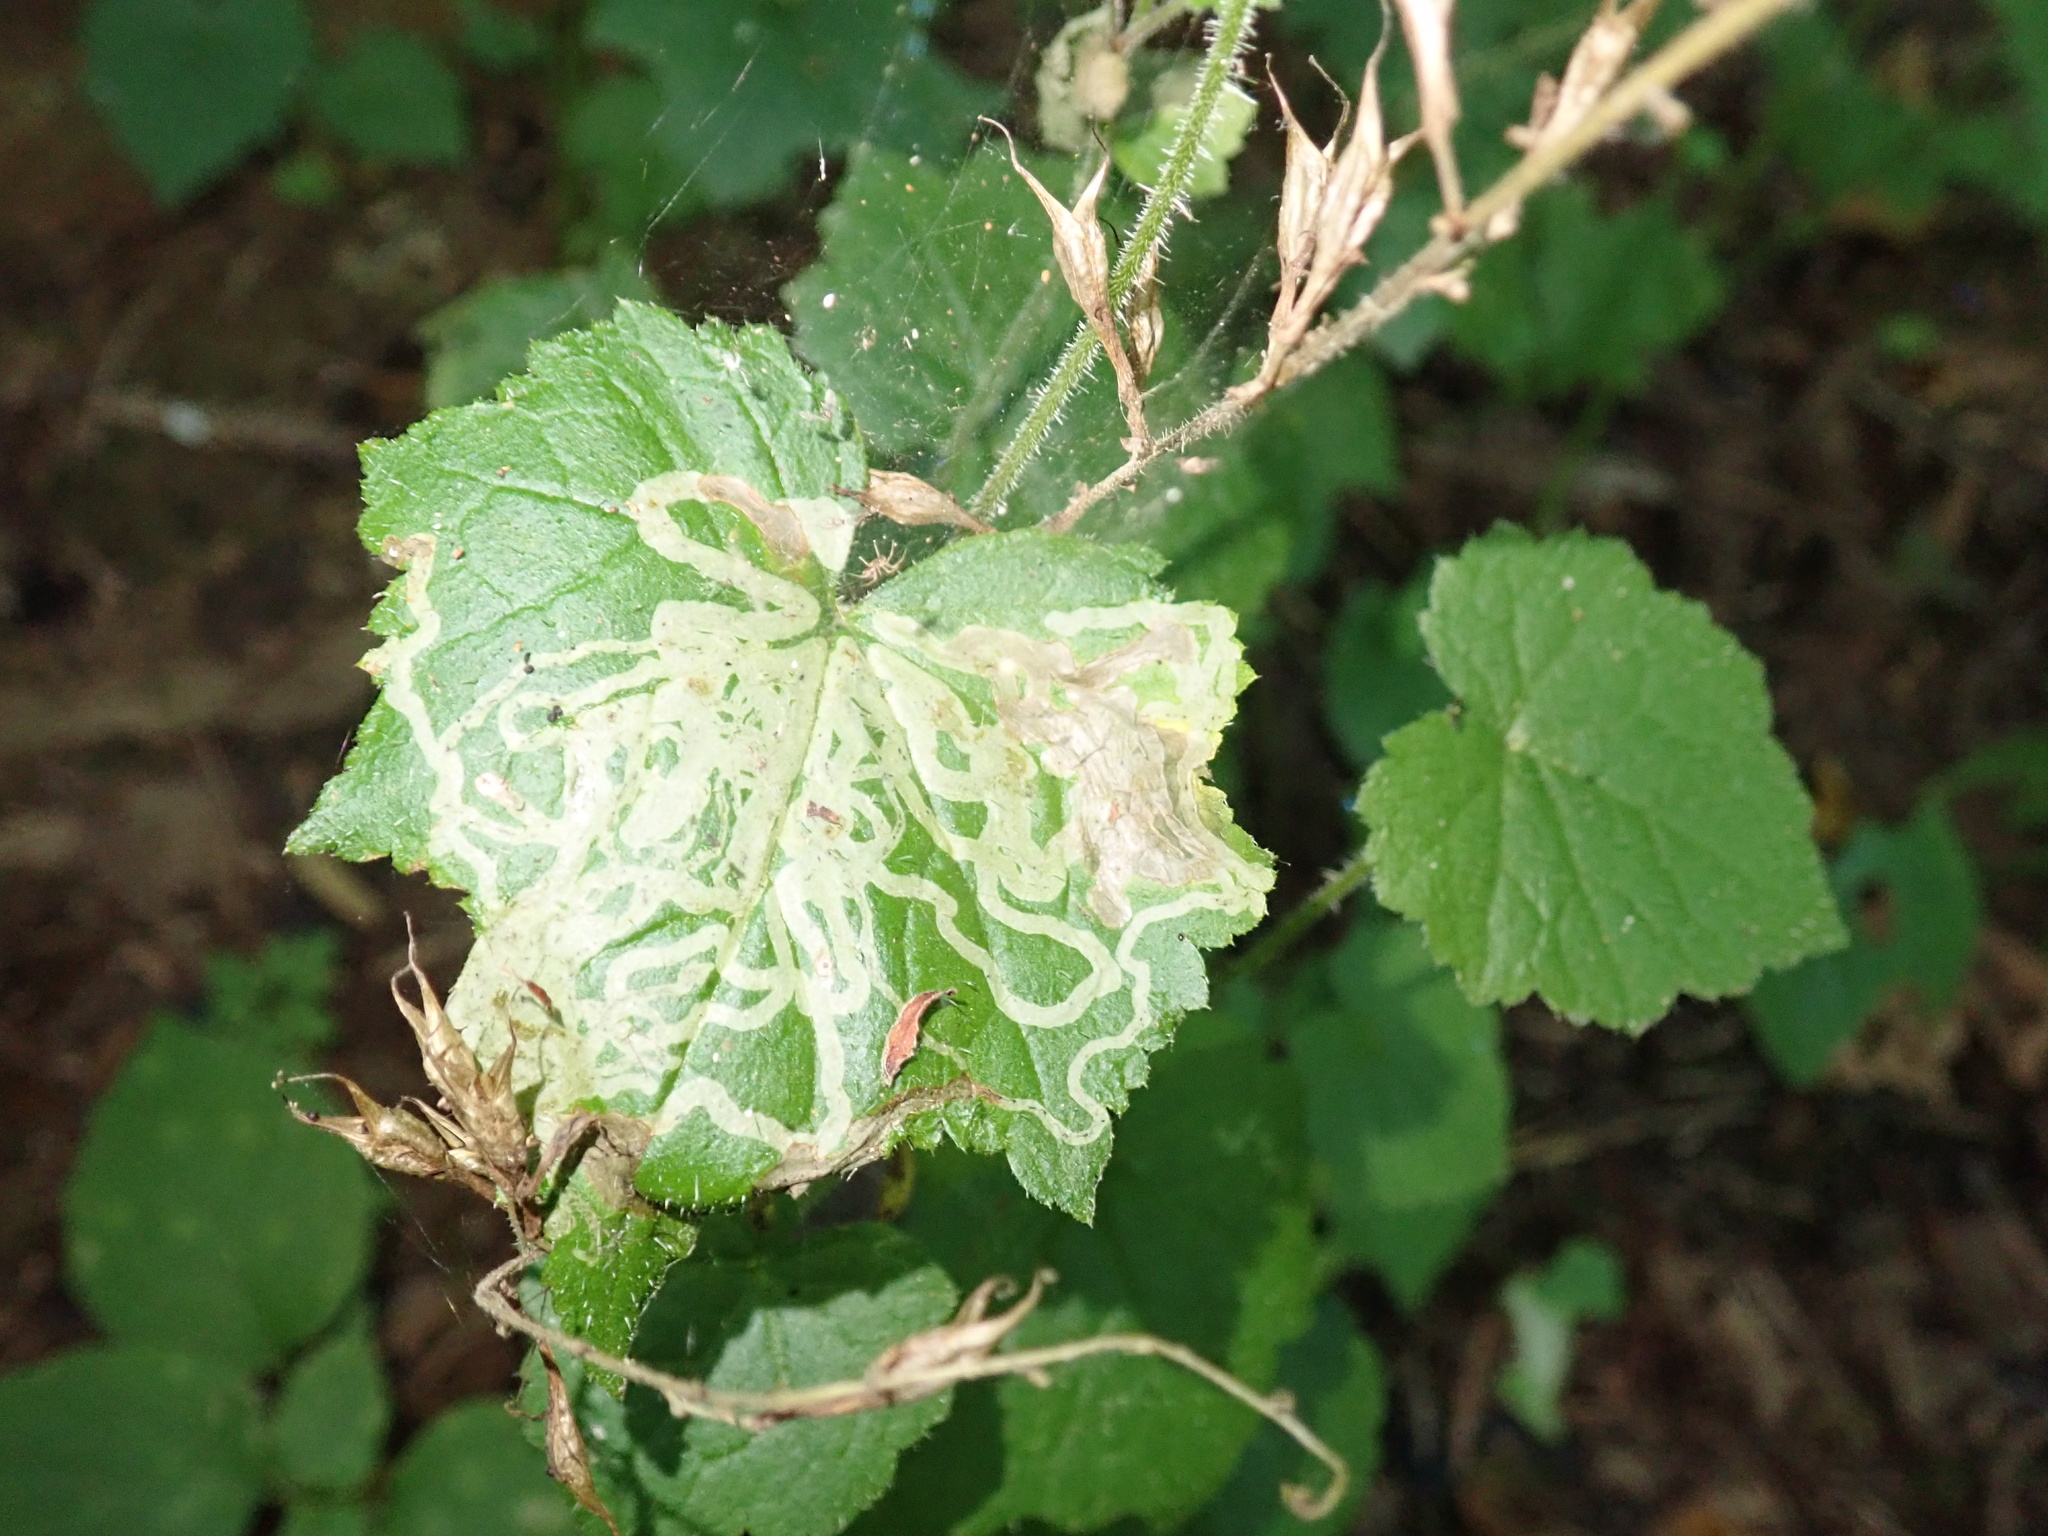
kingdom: Plantae
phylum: Tracheophyta
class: Magnoliopsida
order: Saxifragales
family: Saxifragaceae
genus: Tolmiea
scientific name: Tolmiea menziesii
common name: Pick-a-back-plant
